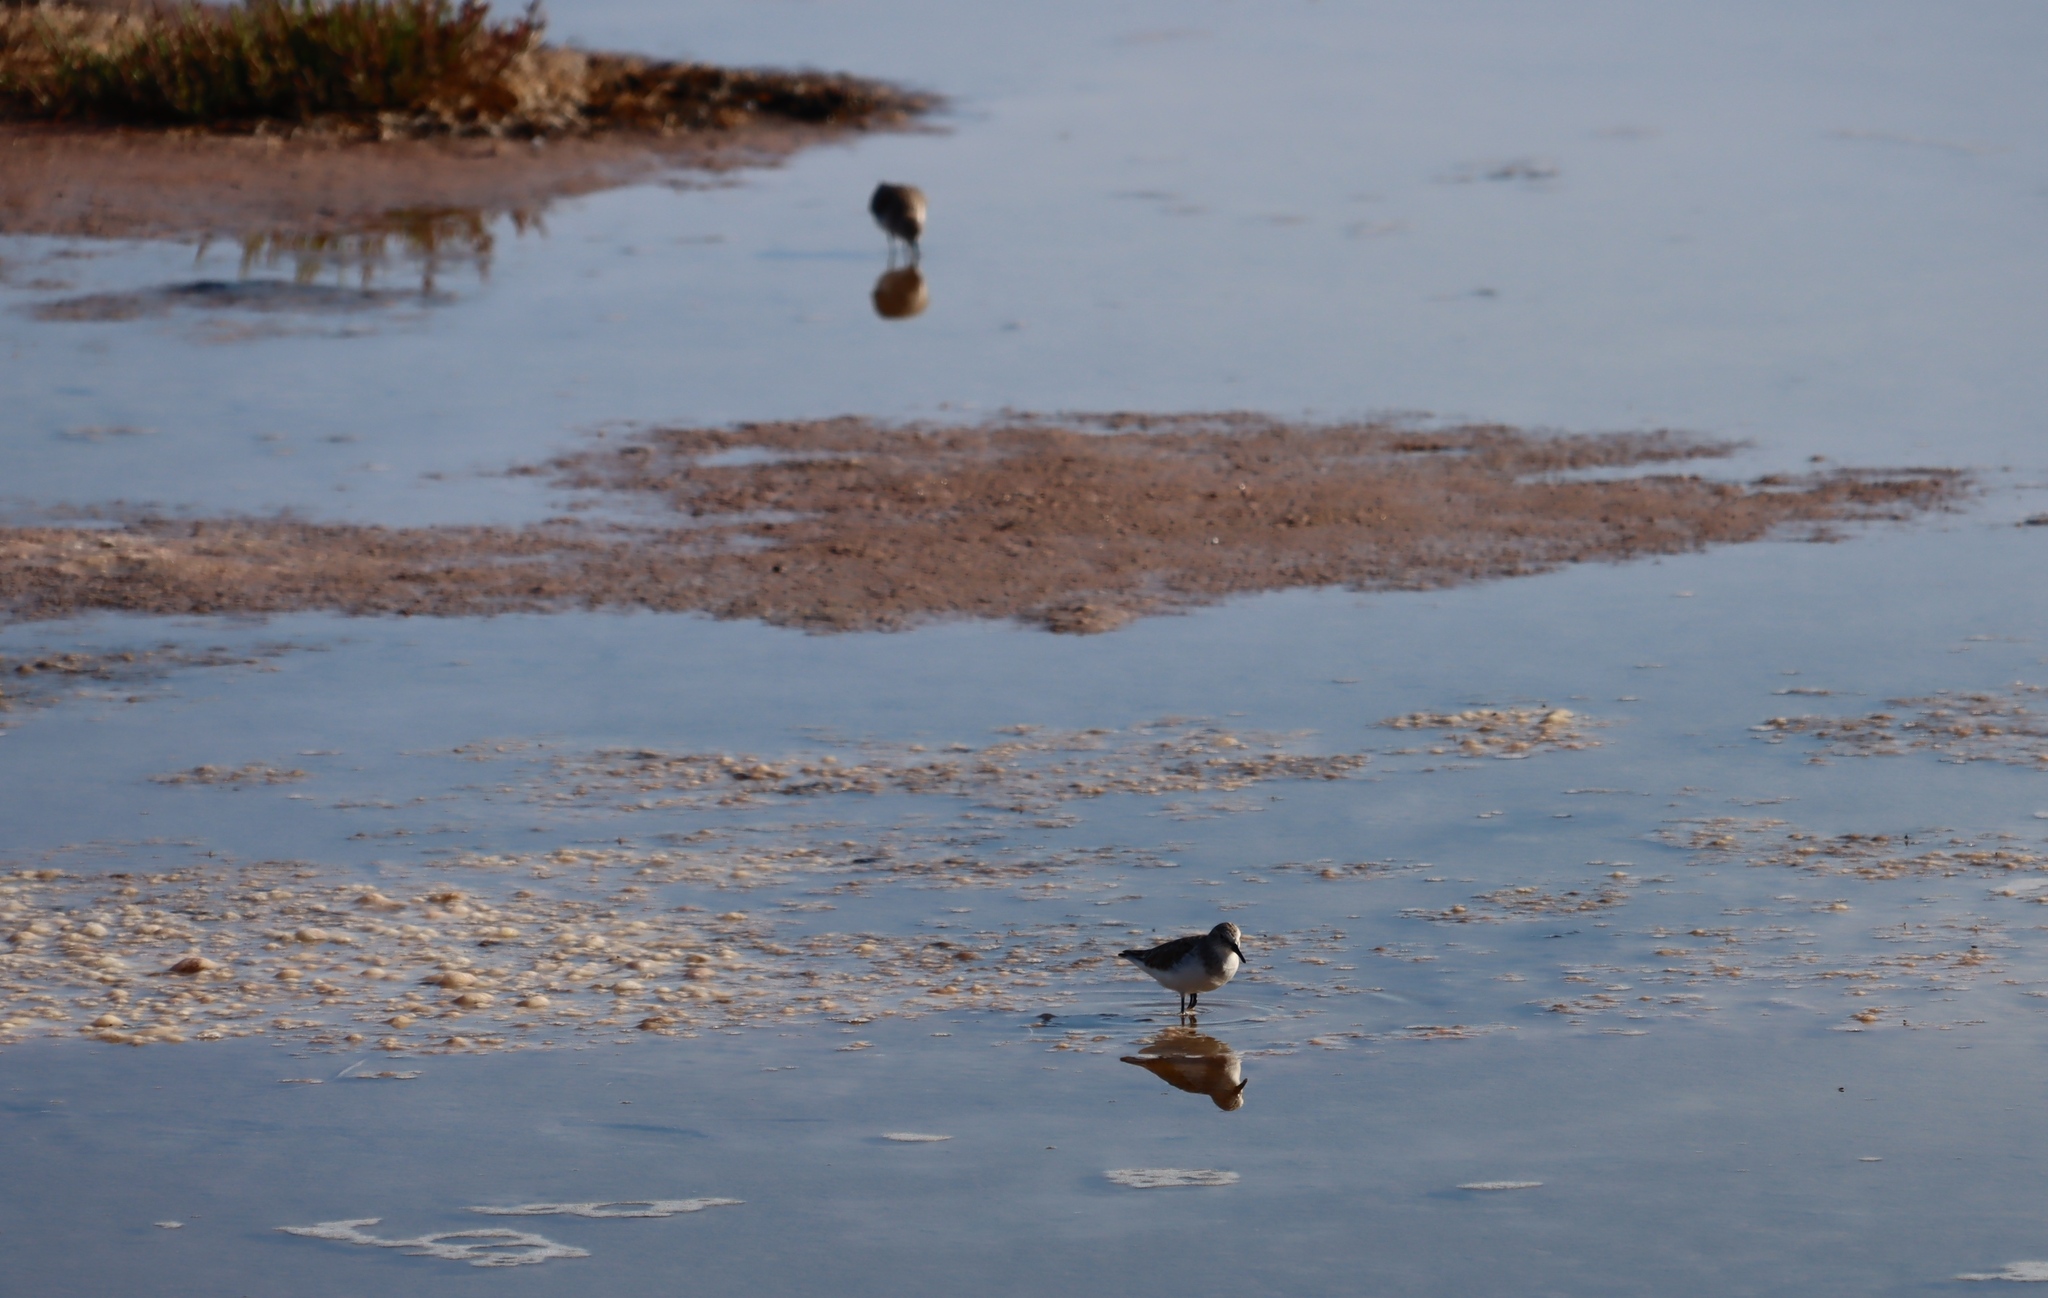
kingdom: Animalia
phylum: Chordata
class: Aves
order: Charadriiformes
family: Scolopacidae
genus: Calidris
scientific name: Calidris minuta
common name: Little stint
